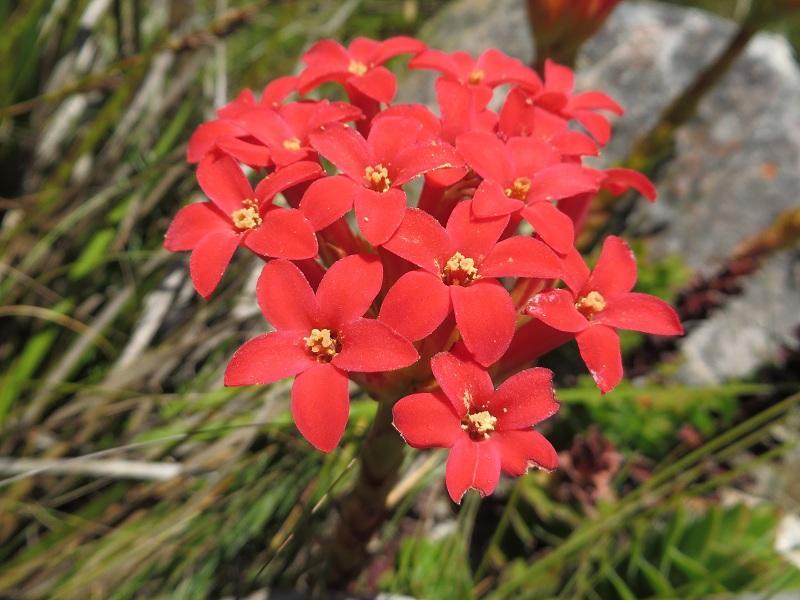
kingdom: Plantae
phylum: Tracheophyta
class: Magnoliopsida
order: Saxifragales
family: Crassulaceae
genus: Crassula
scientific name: Crassula coccinea
